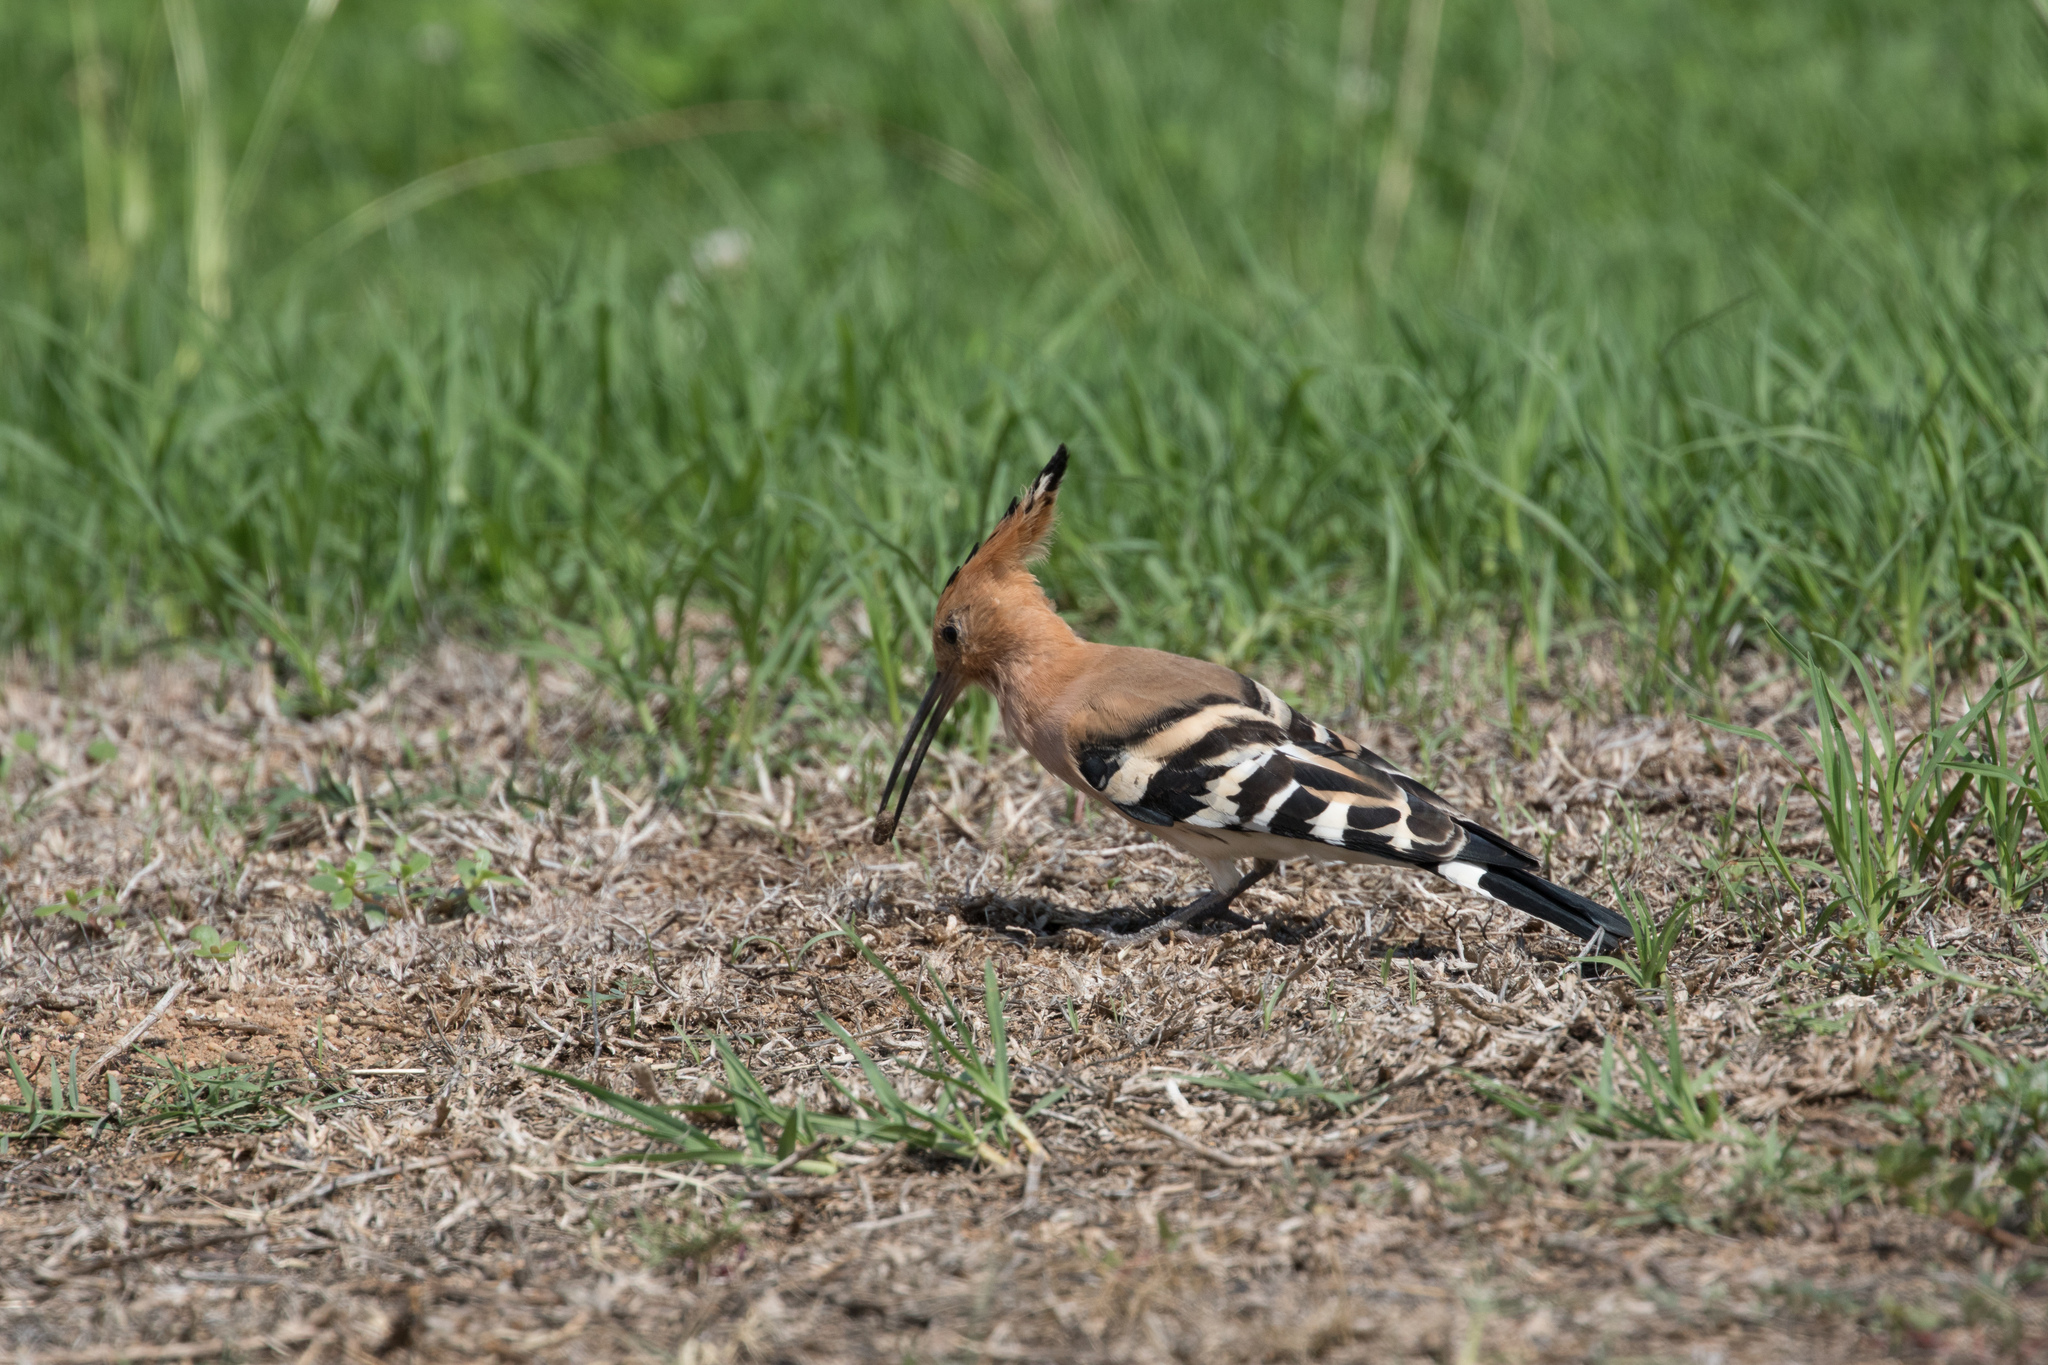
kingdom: Animalia
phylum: Chordata
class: Aves
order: Bucerotiformes
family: Upupidae
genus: Upupa
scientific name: Upupa epops
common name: Eurasian hoopoe
